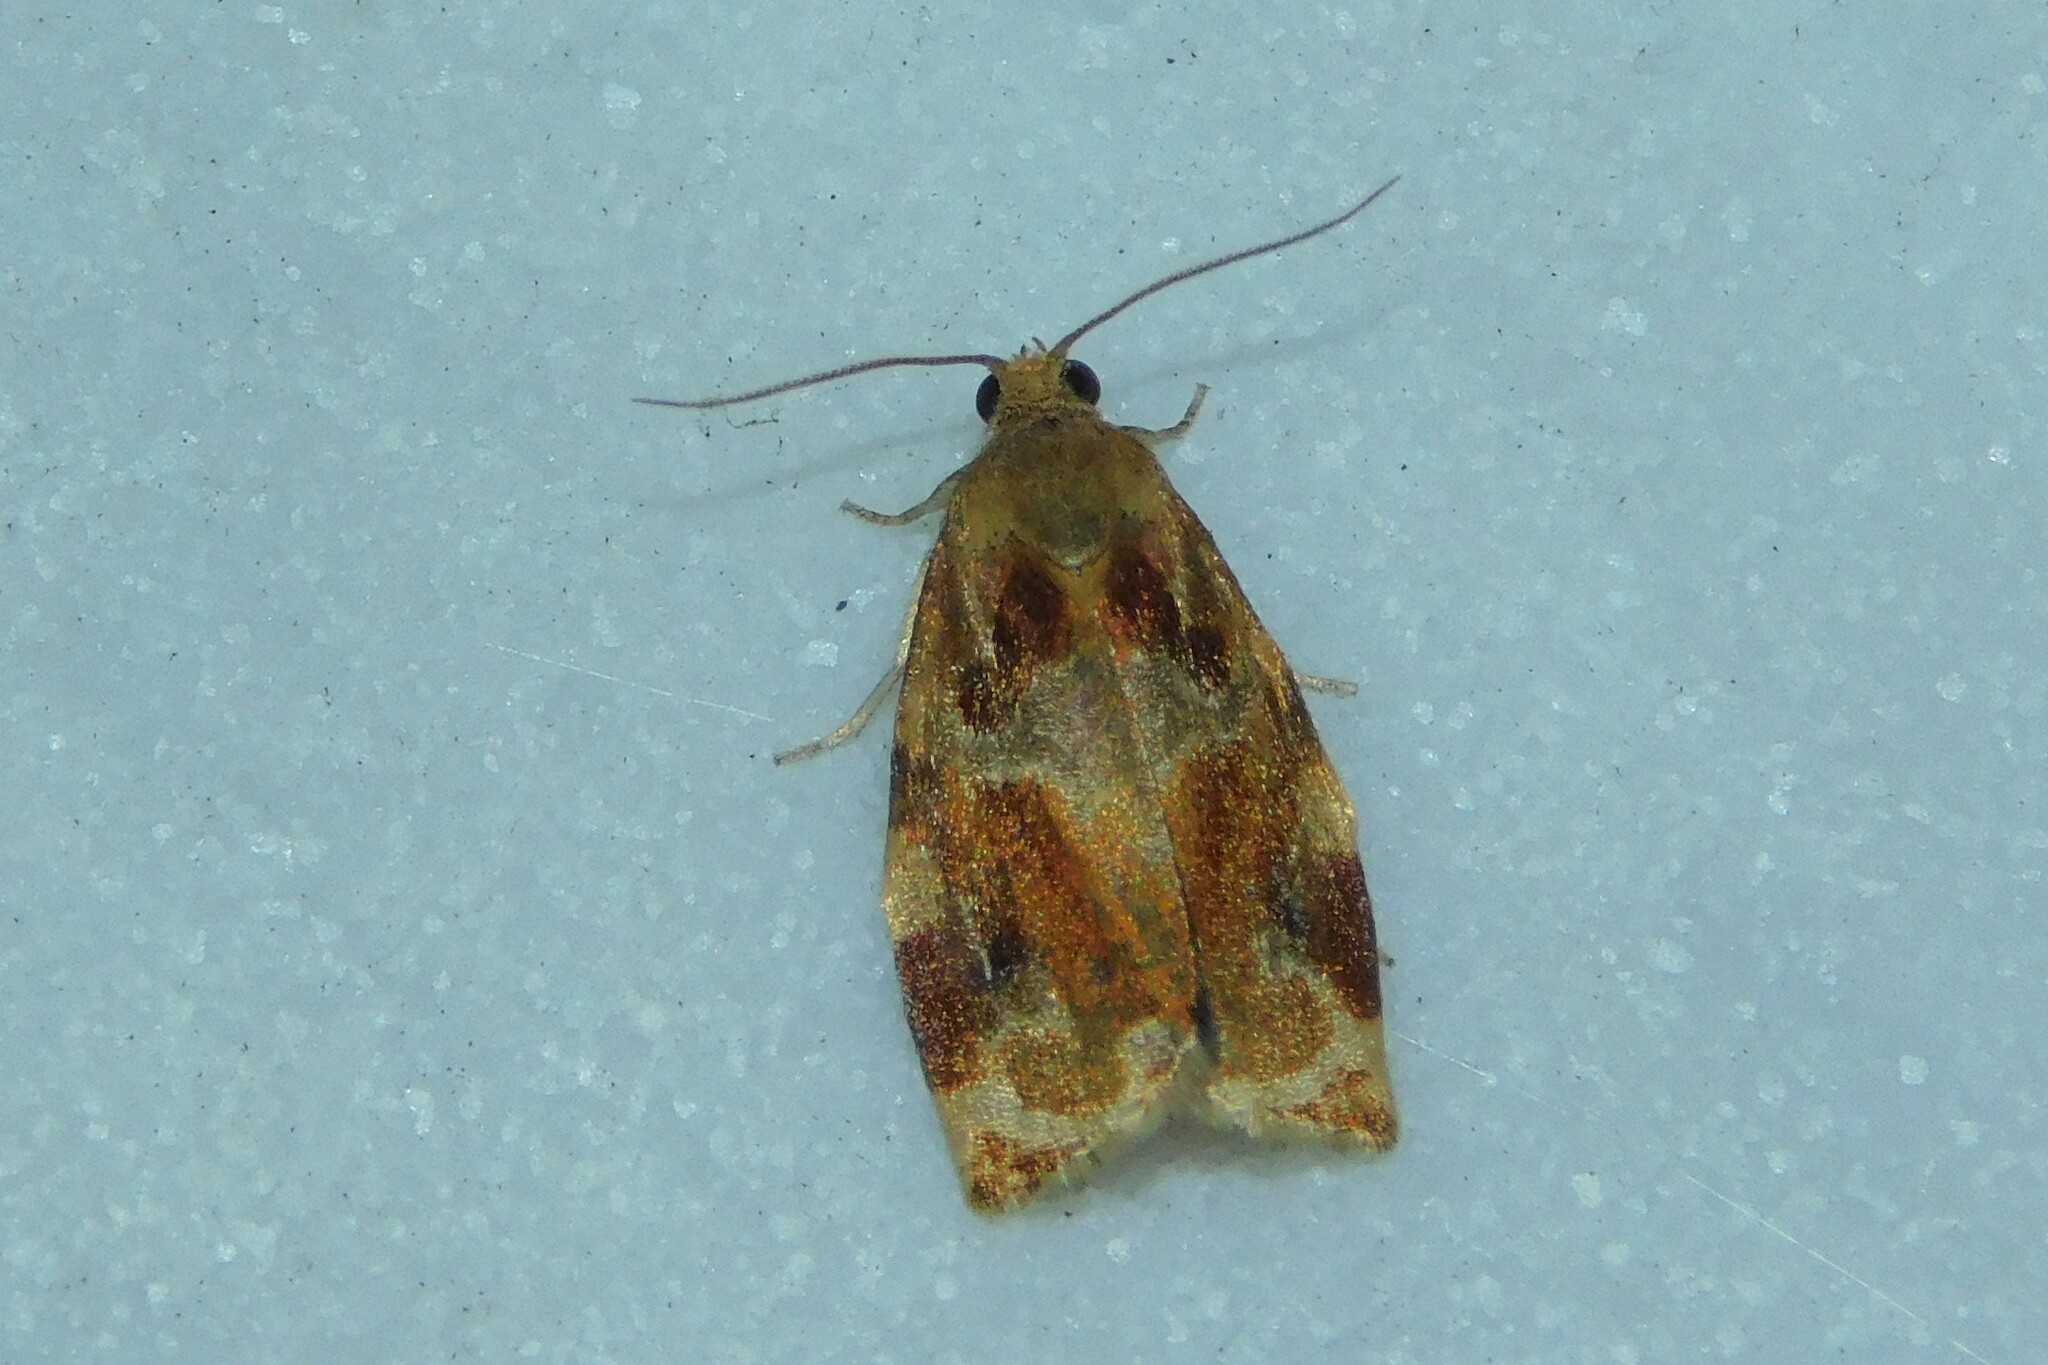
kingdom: Animalia
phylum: Arthropoda
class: Insecta
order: Lepidoptera
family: Tortricidae
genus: Archips
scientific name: Archips xylosteana
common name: Variegated golden tortrix
